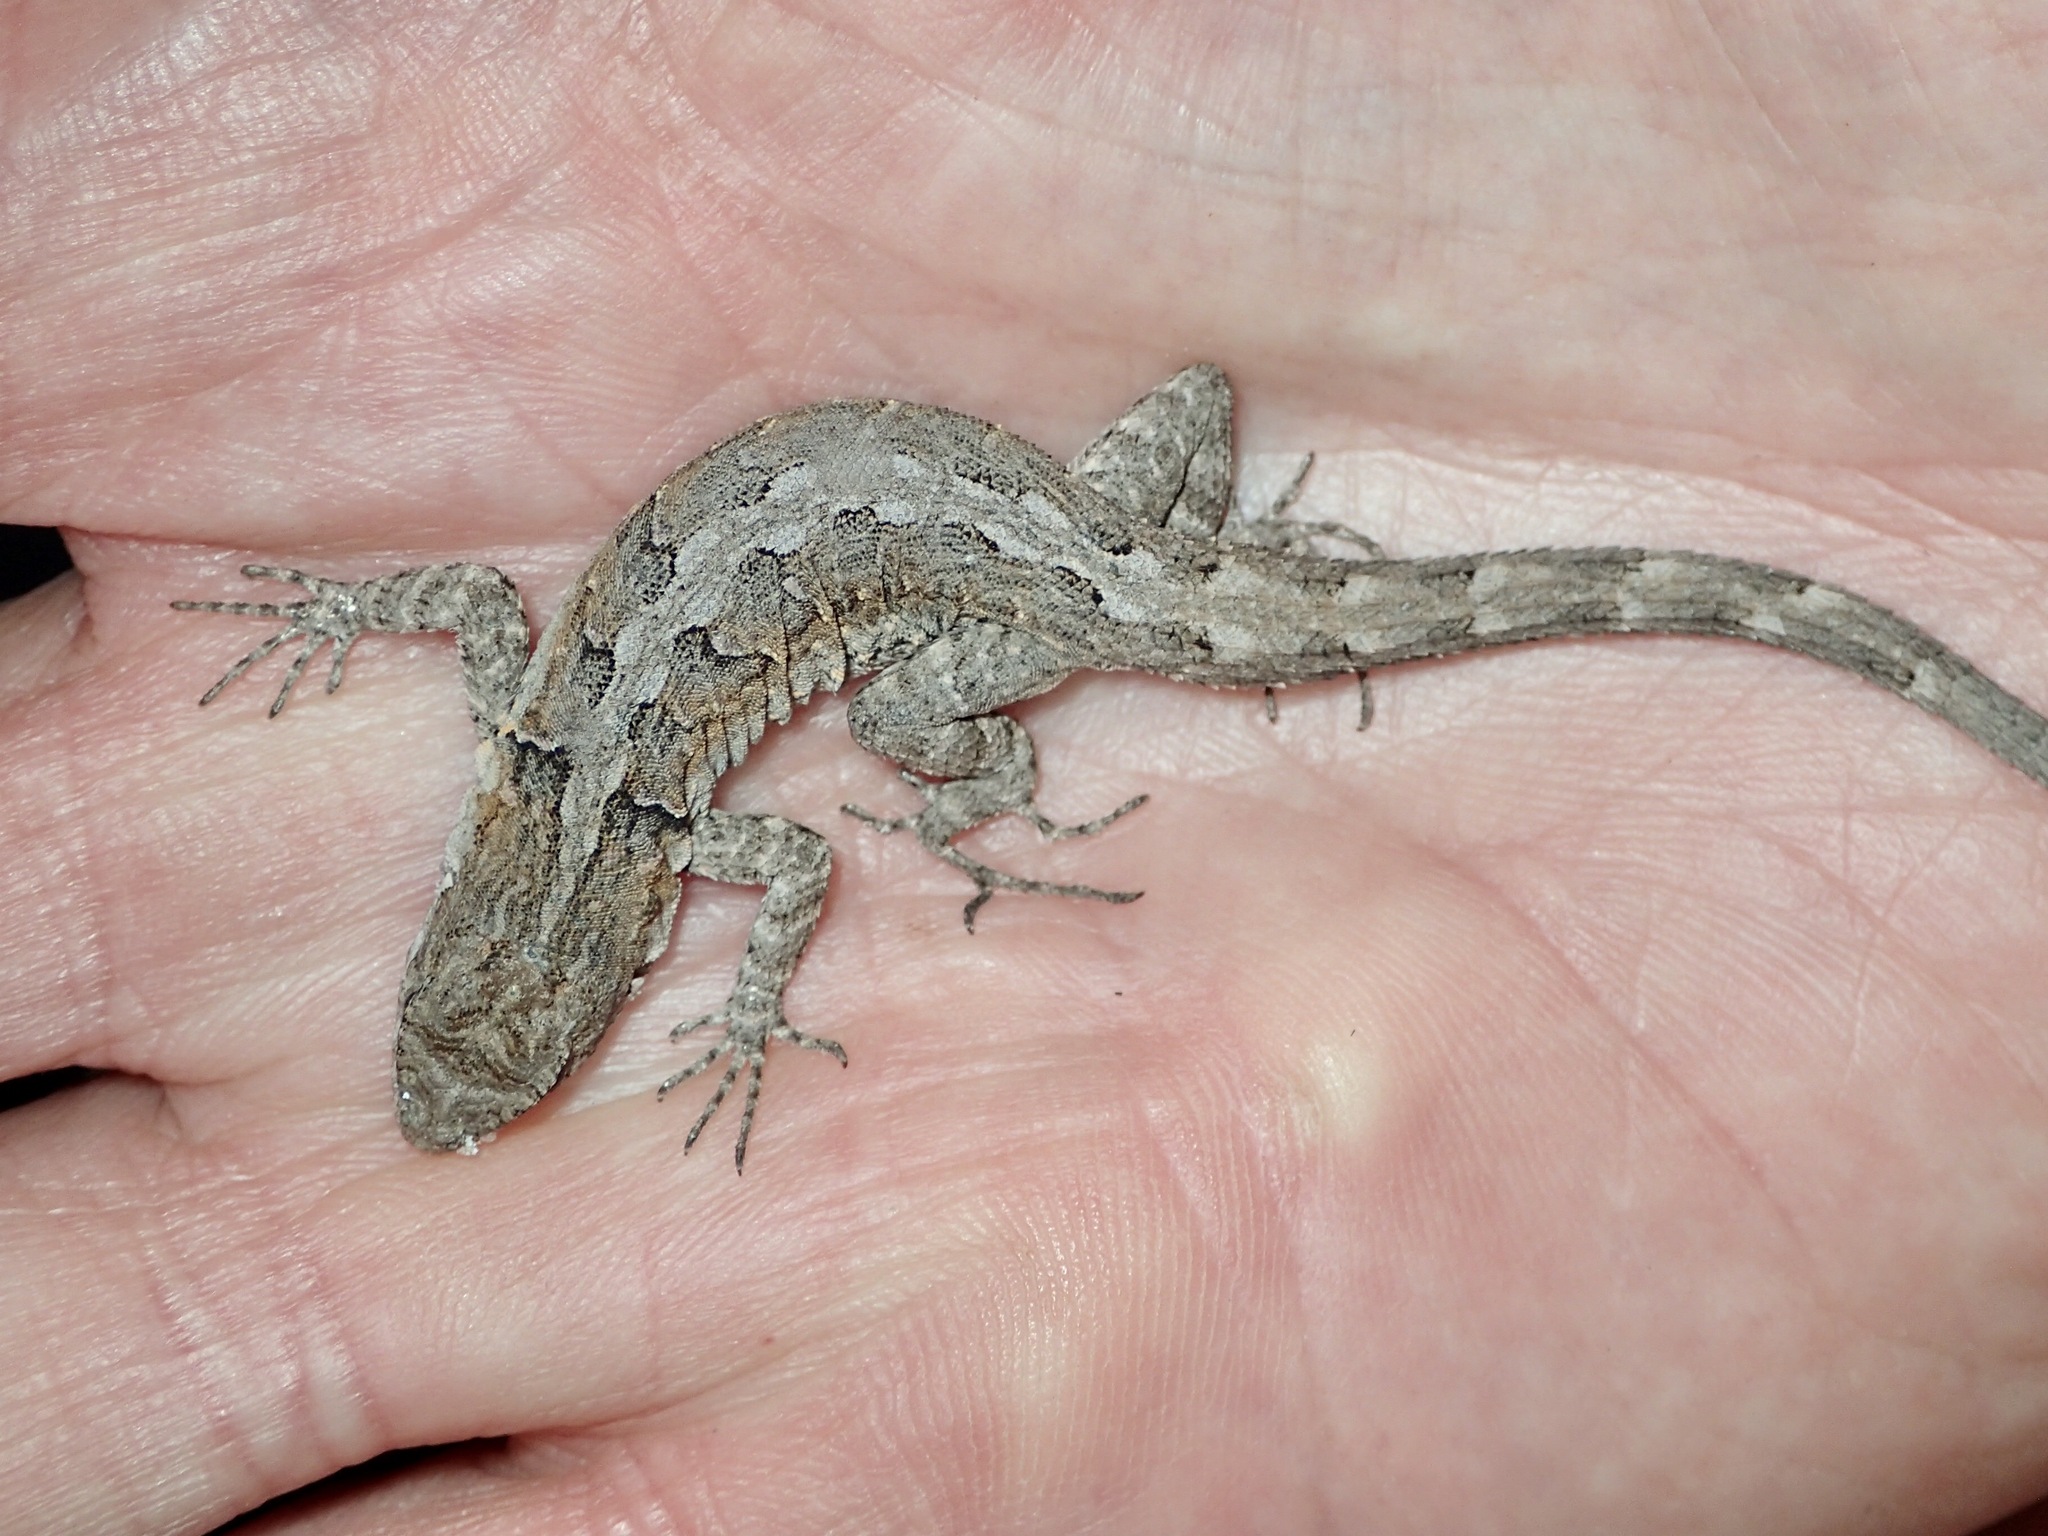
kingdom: Animalia
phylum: Chordata
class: Squamata
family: Phrynosomatidae
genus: Urosaurus
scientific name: Urosaurus nigricauda
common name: Baja california brush lizard
